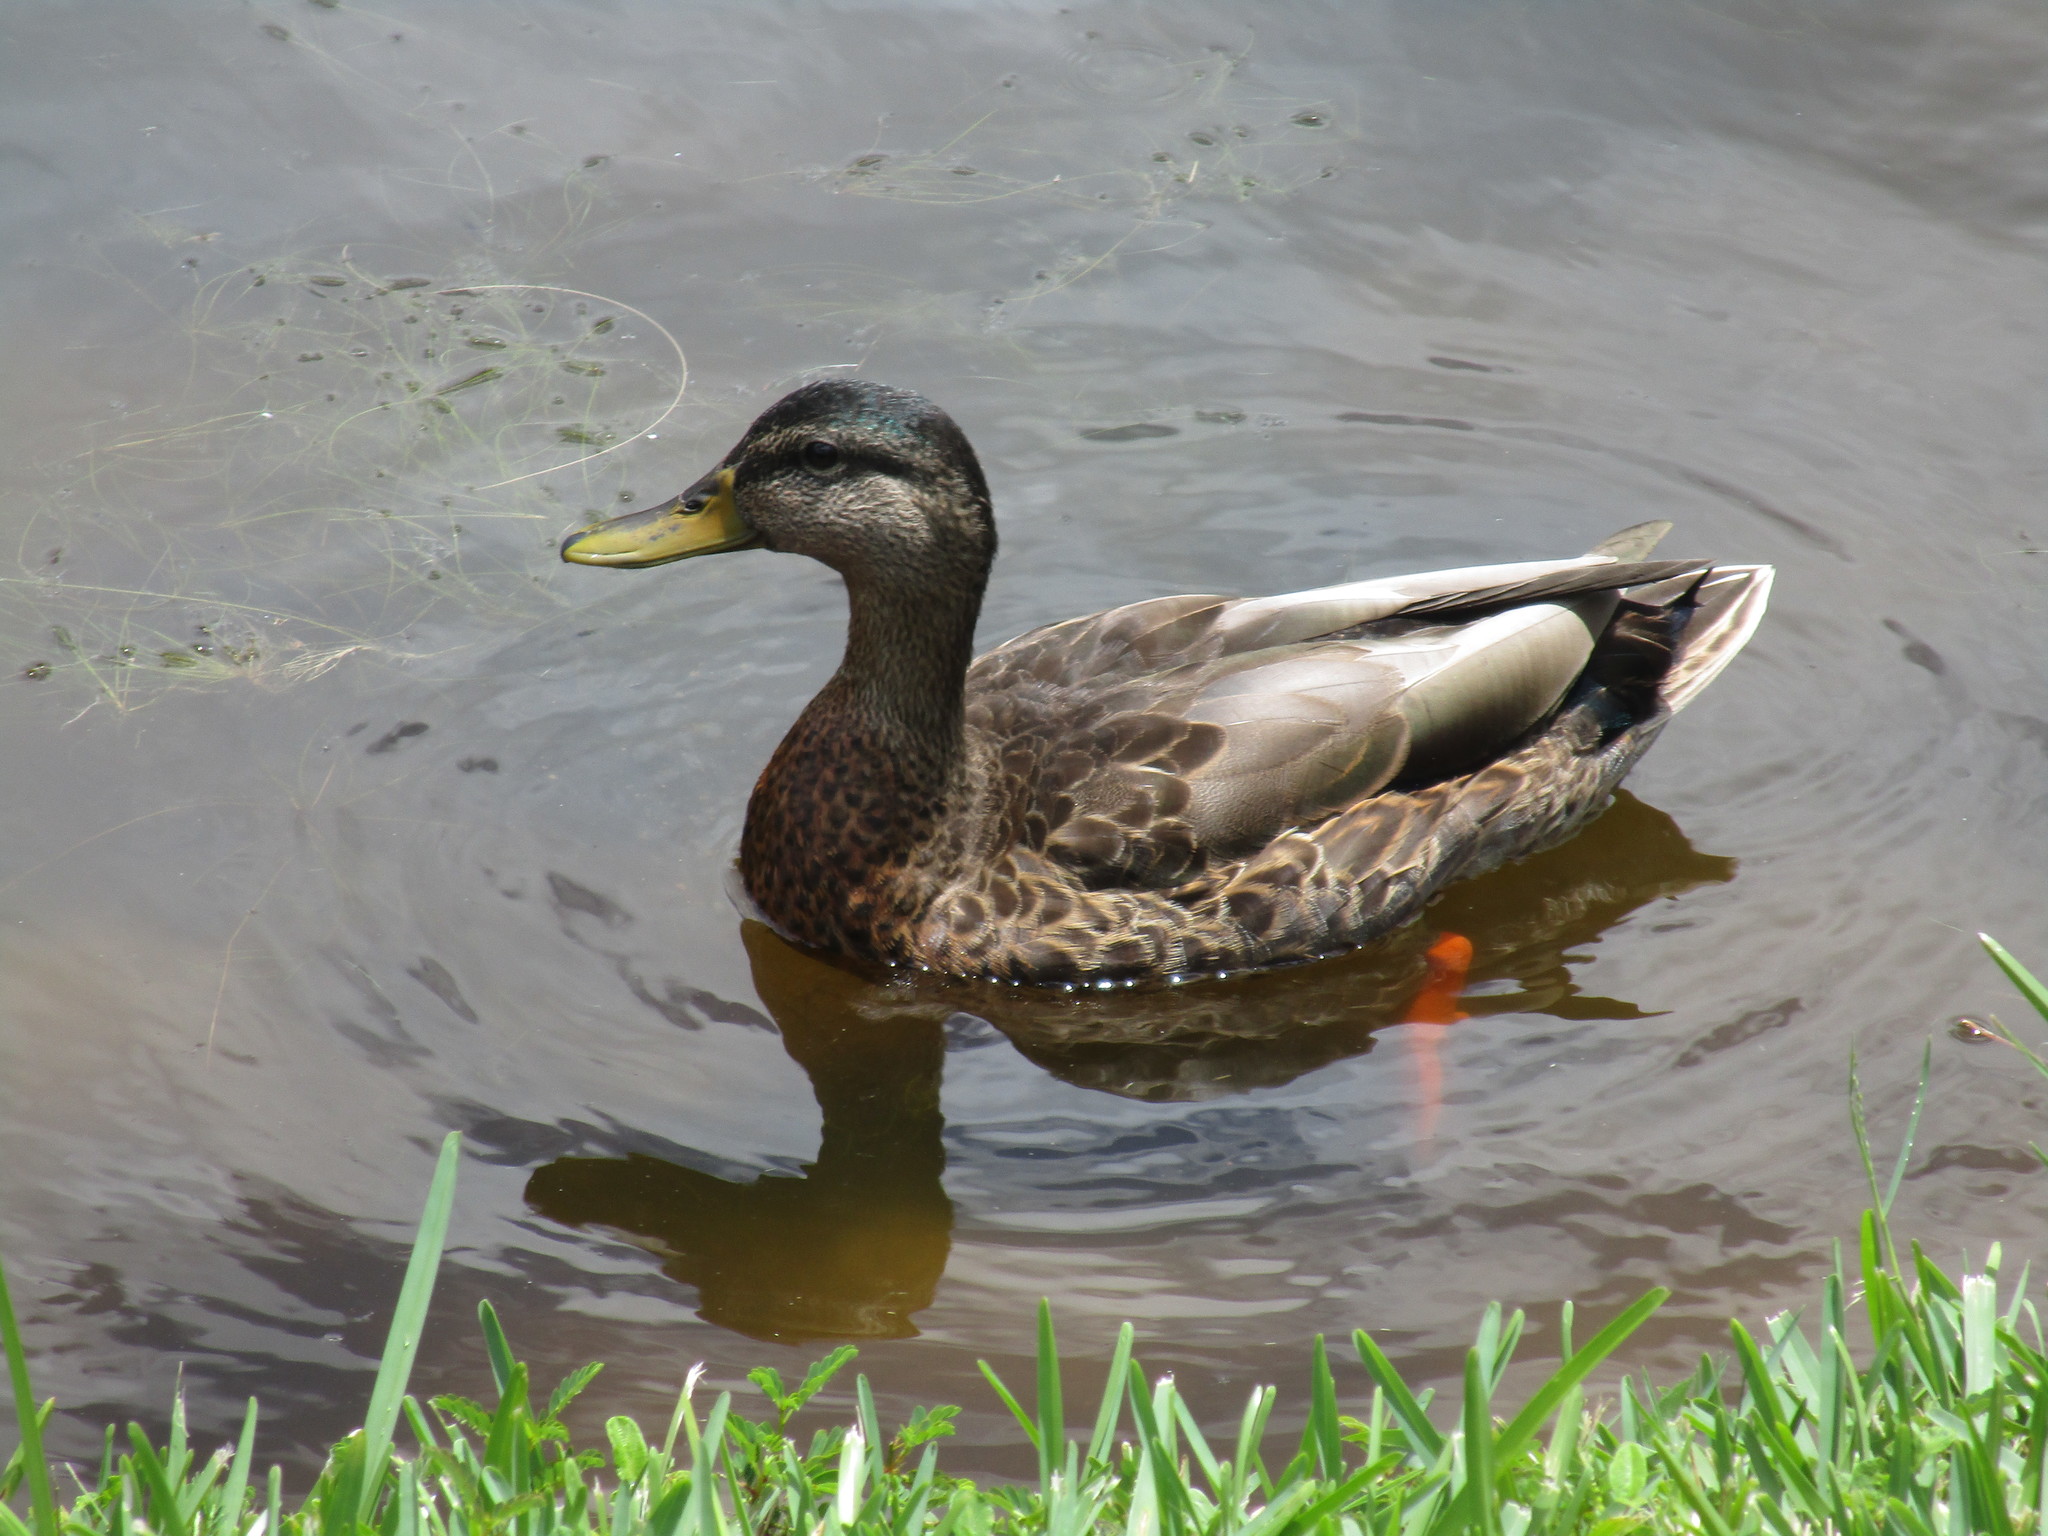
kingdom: Animalia
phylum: Chordata
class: Aves
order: Anseriformes
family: Anatidae
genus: Anas
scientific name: Anas platyrhynchos
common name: Mallard
